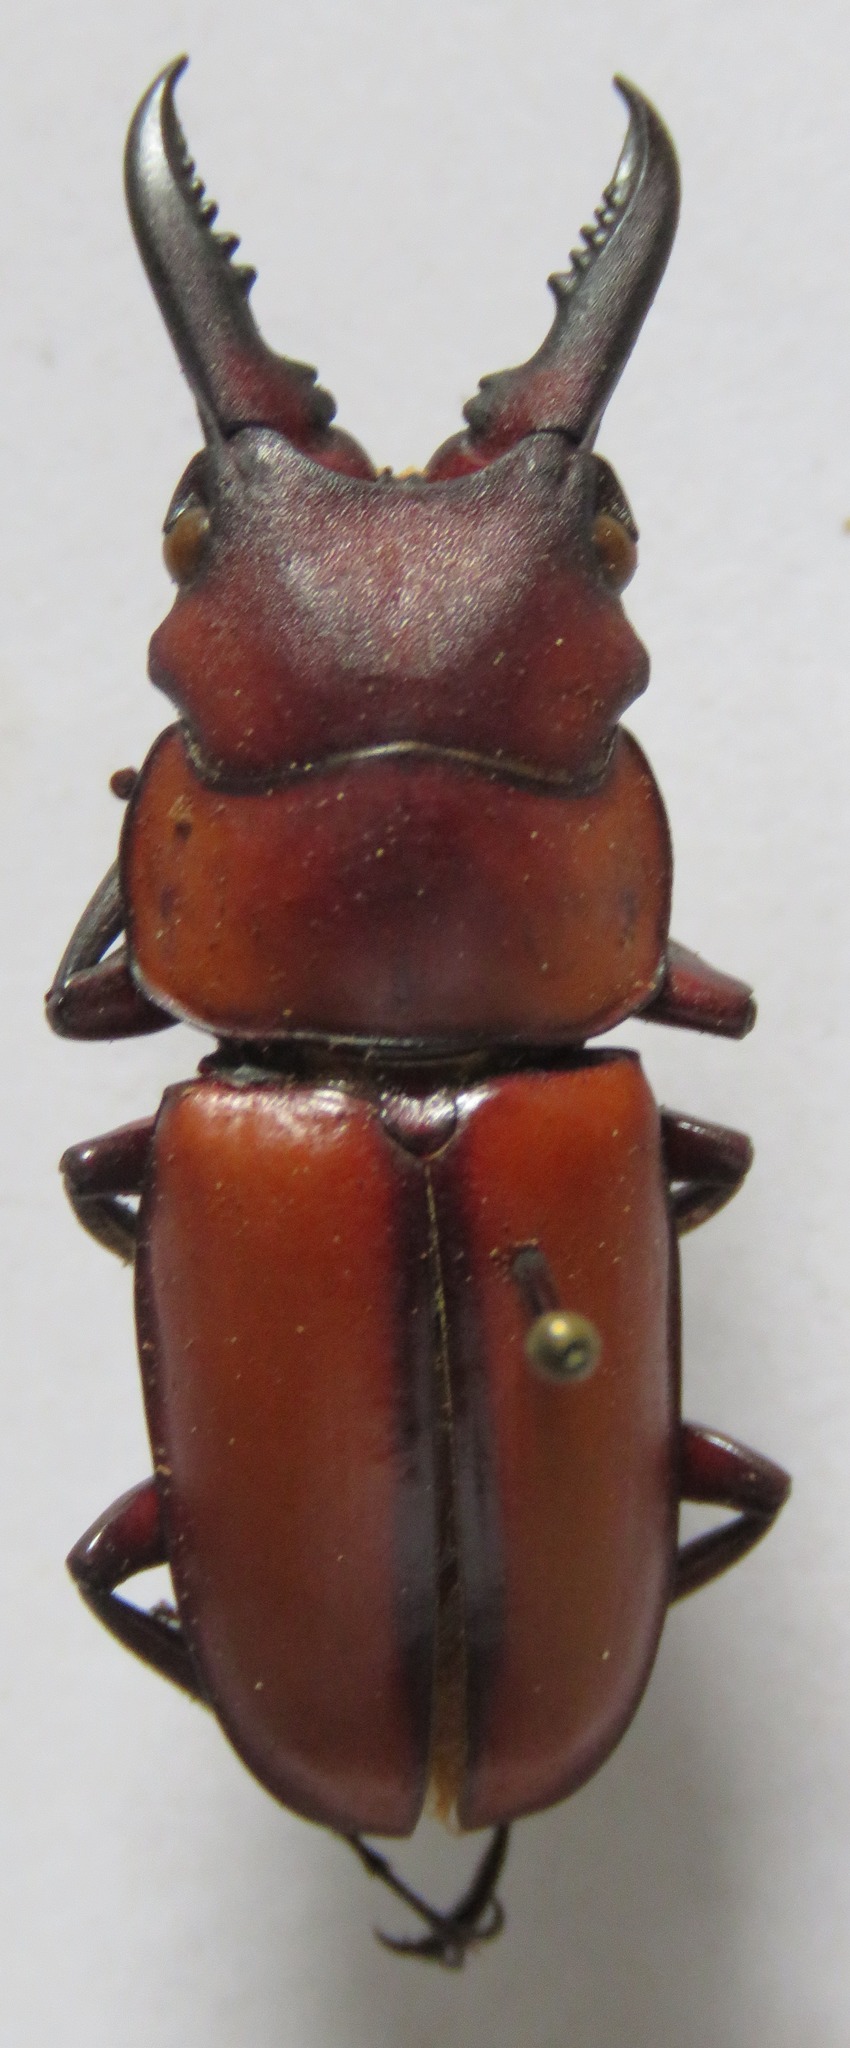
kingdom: Animalia
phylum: Arthropoda
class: Insecta
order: Coleoptera
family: Lucanidae
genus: Prosopocoilus
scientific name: Prosopocoilus kasaiensis
